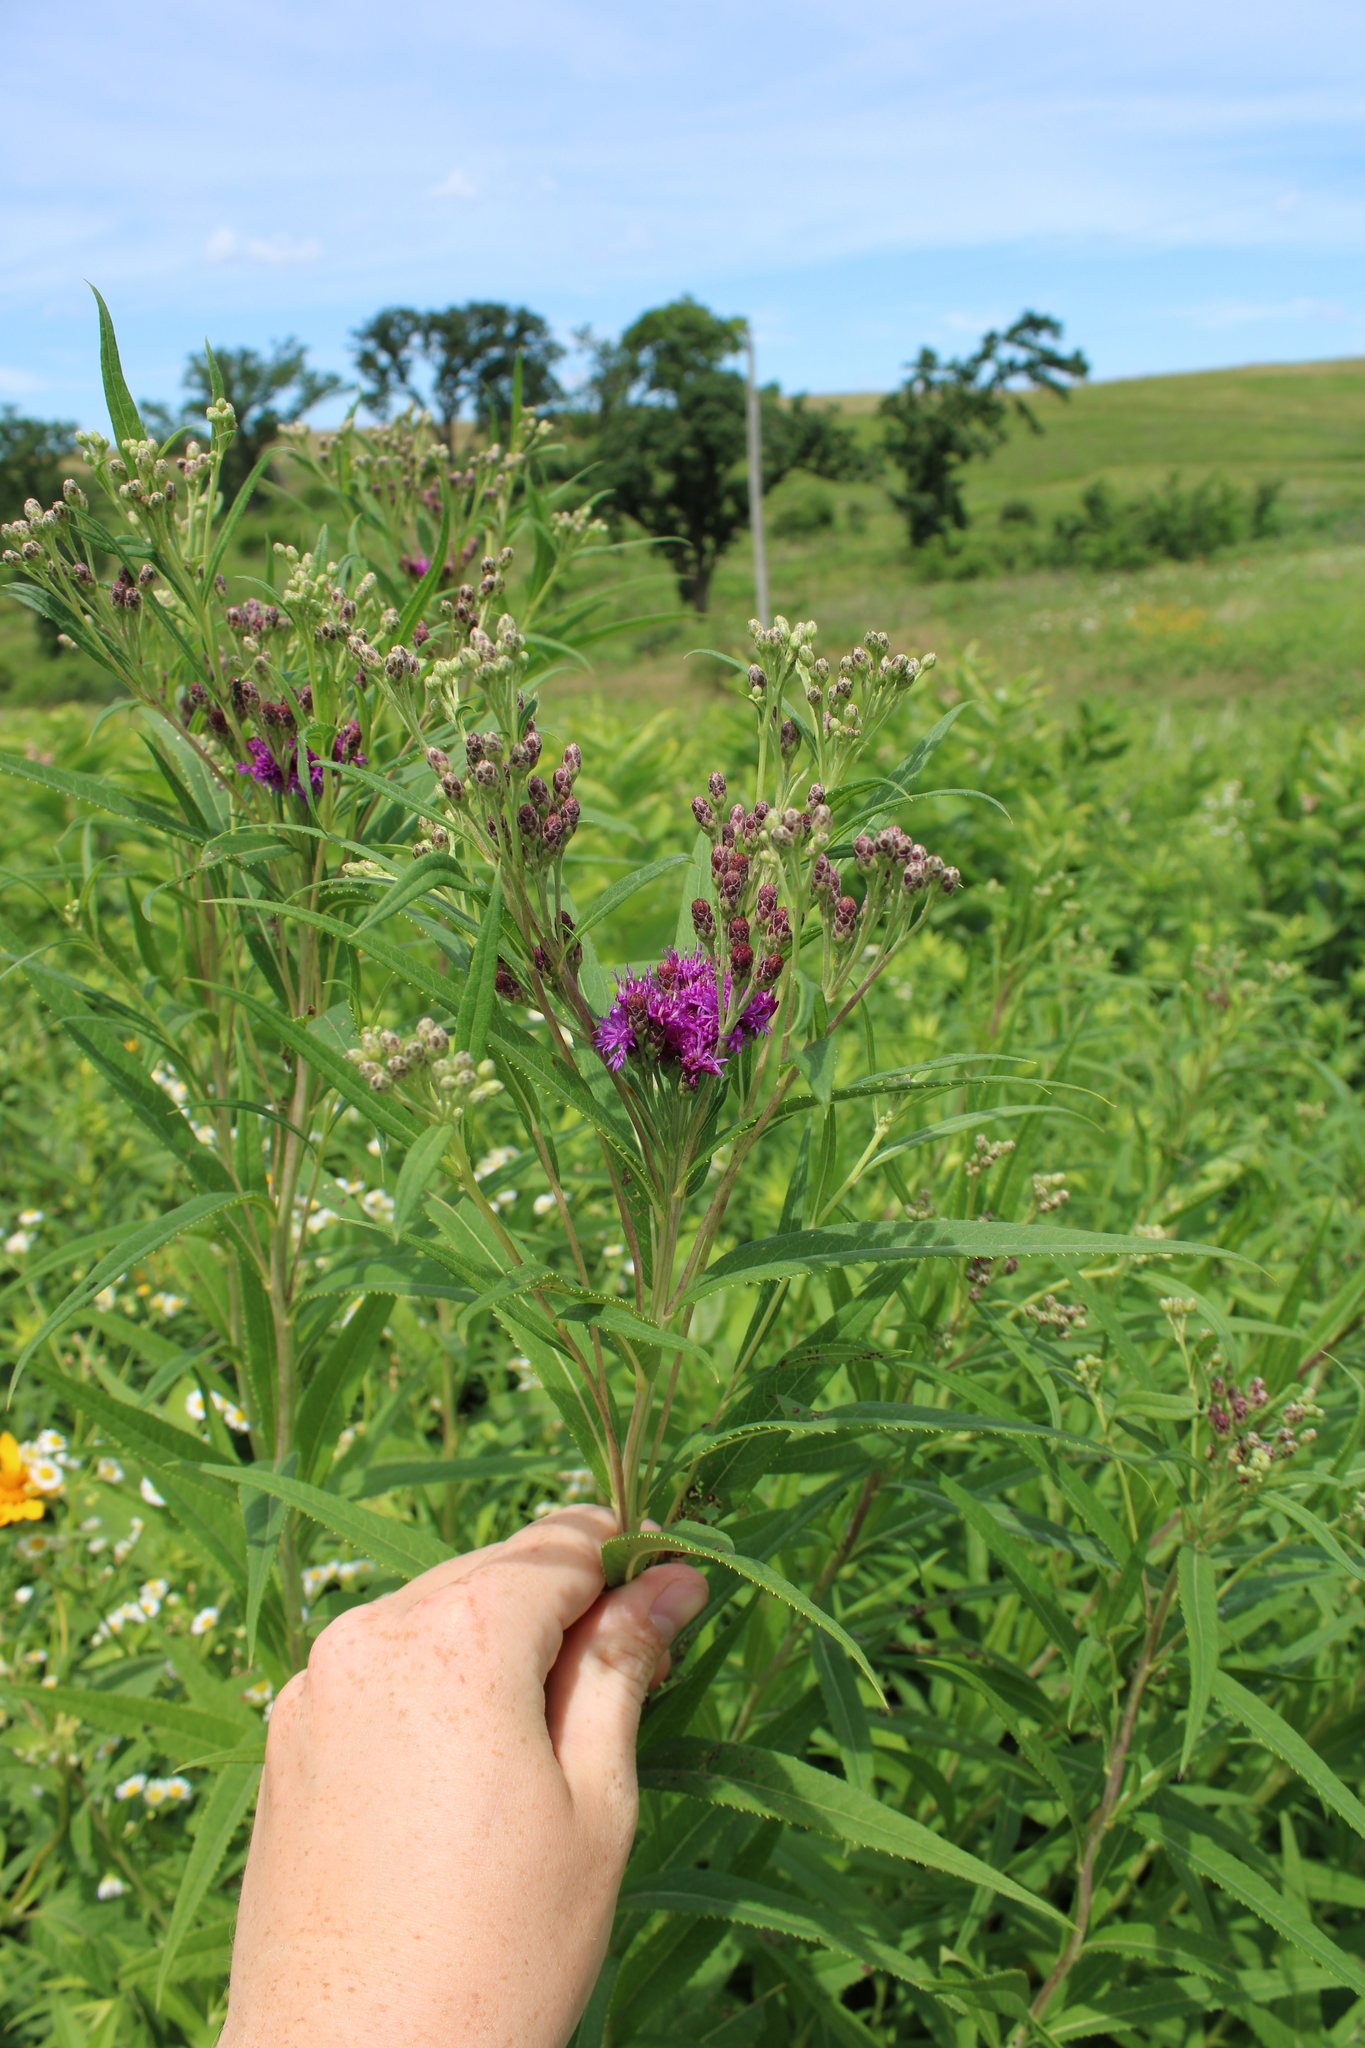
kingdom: Plantae
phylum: Tracheophyta
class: Magnoliopsida
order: Asterales
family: Asteraceae
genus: Vernonia
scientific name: Vernonia fasciculata
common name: Fascicled ironweed
